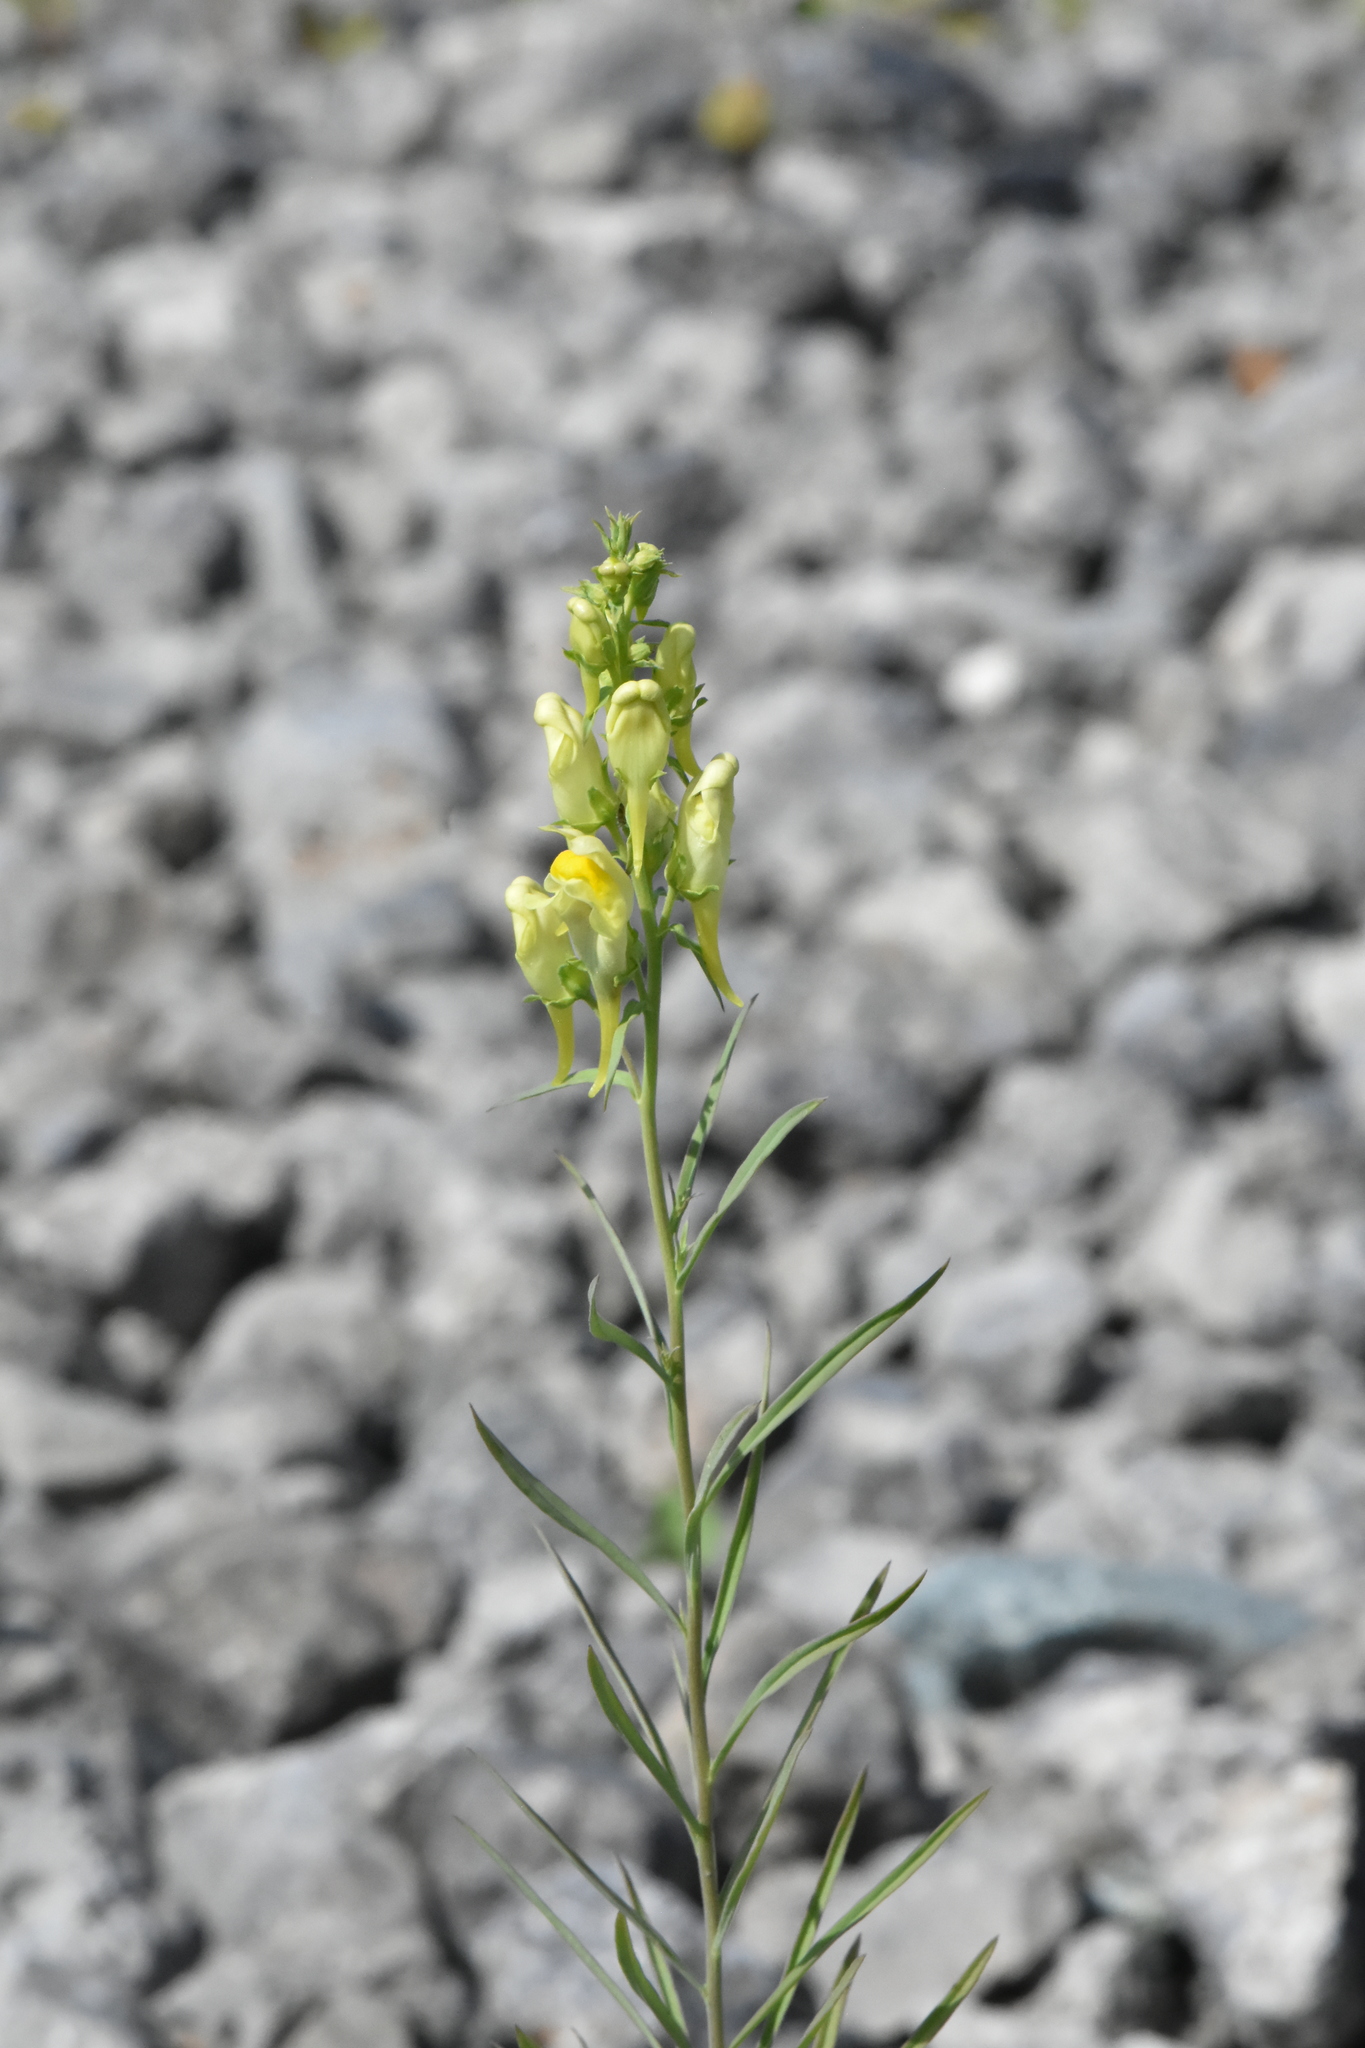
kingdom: Plantae
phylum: Tracheophyta
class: Magnoliopsida
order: Lamiales
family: Plantaginaceae
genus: Linaria
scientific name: Linaria vulgaris
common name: Butter and eggs
